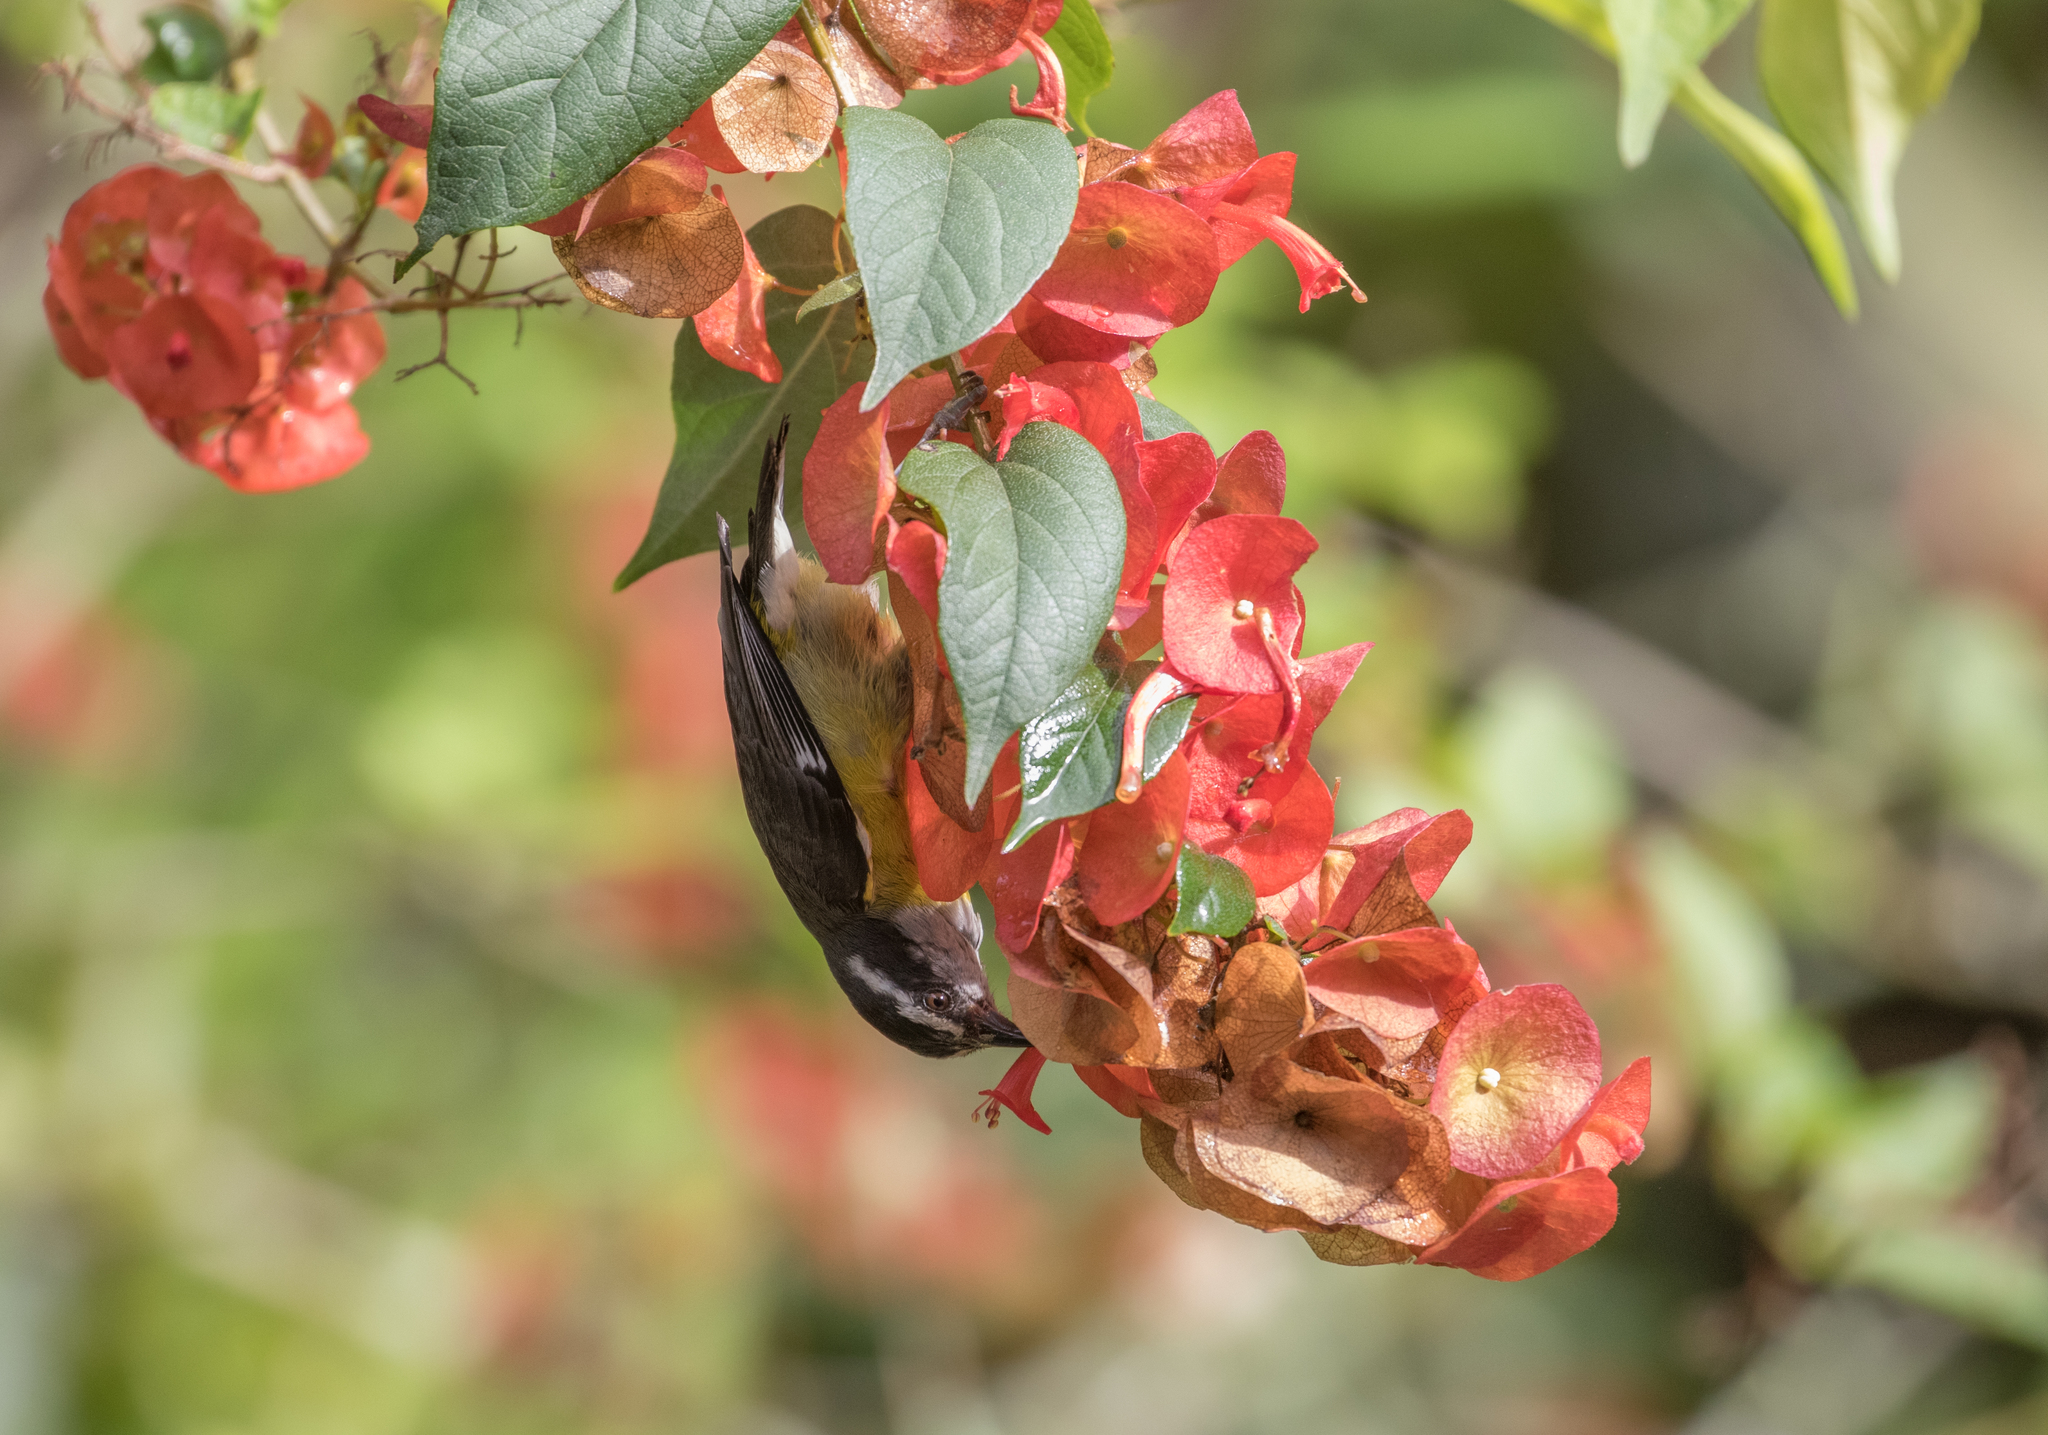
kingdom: Animalia
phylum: Chordata
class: Aves
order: Passeriformes
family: Thraupidae
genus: Coereba
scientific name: Coereba flaveola
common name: Bananaquit
